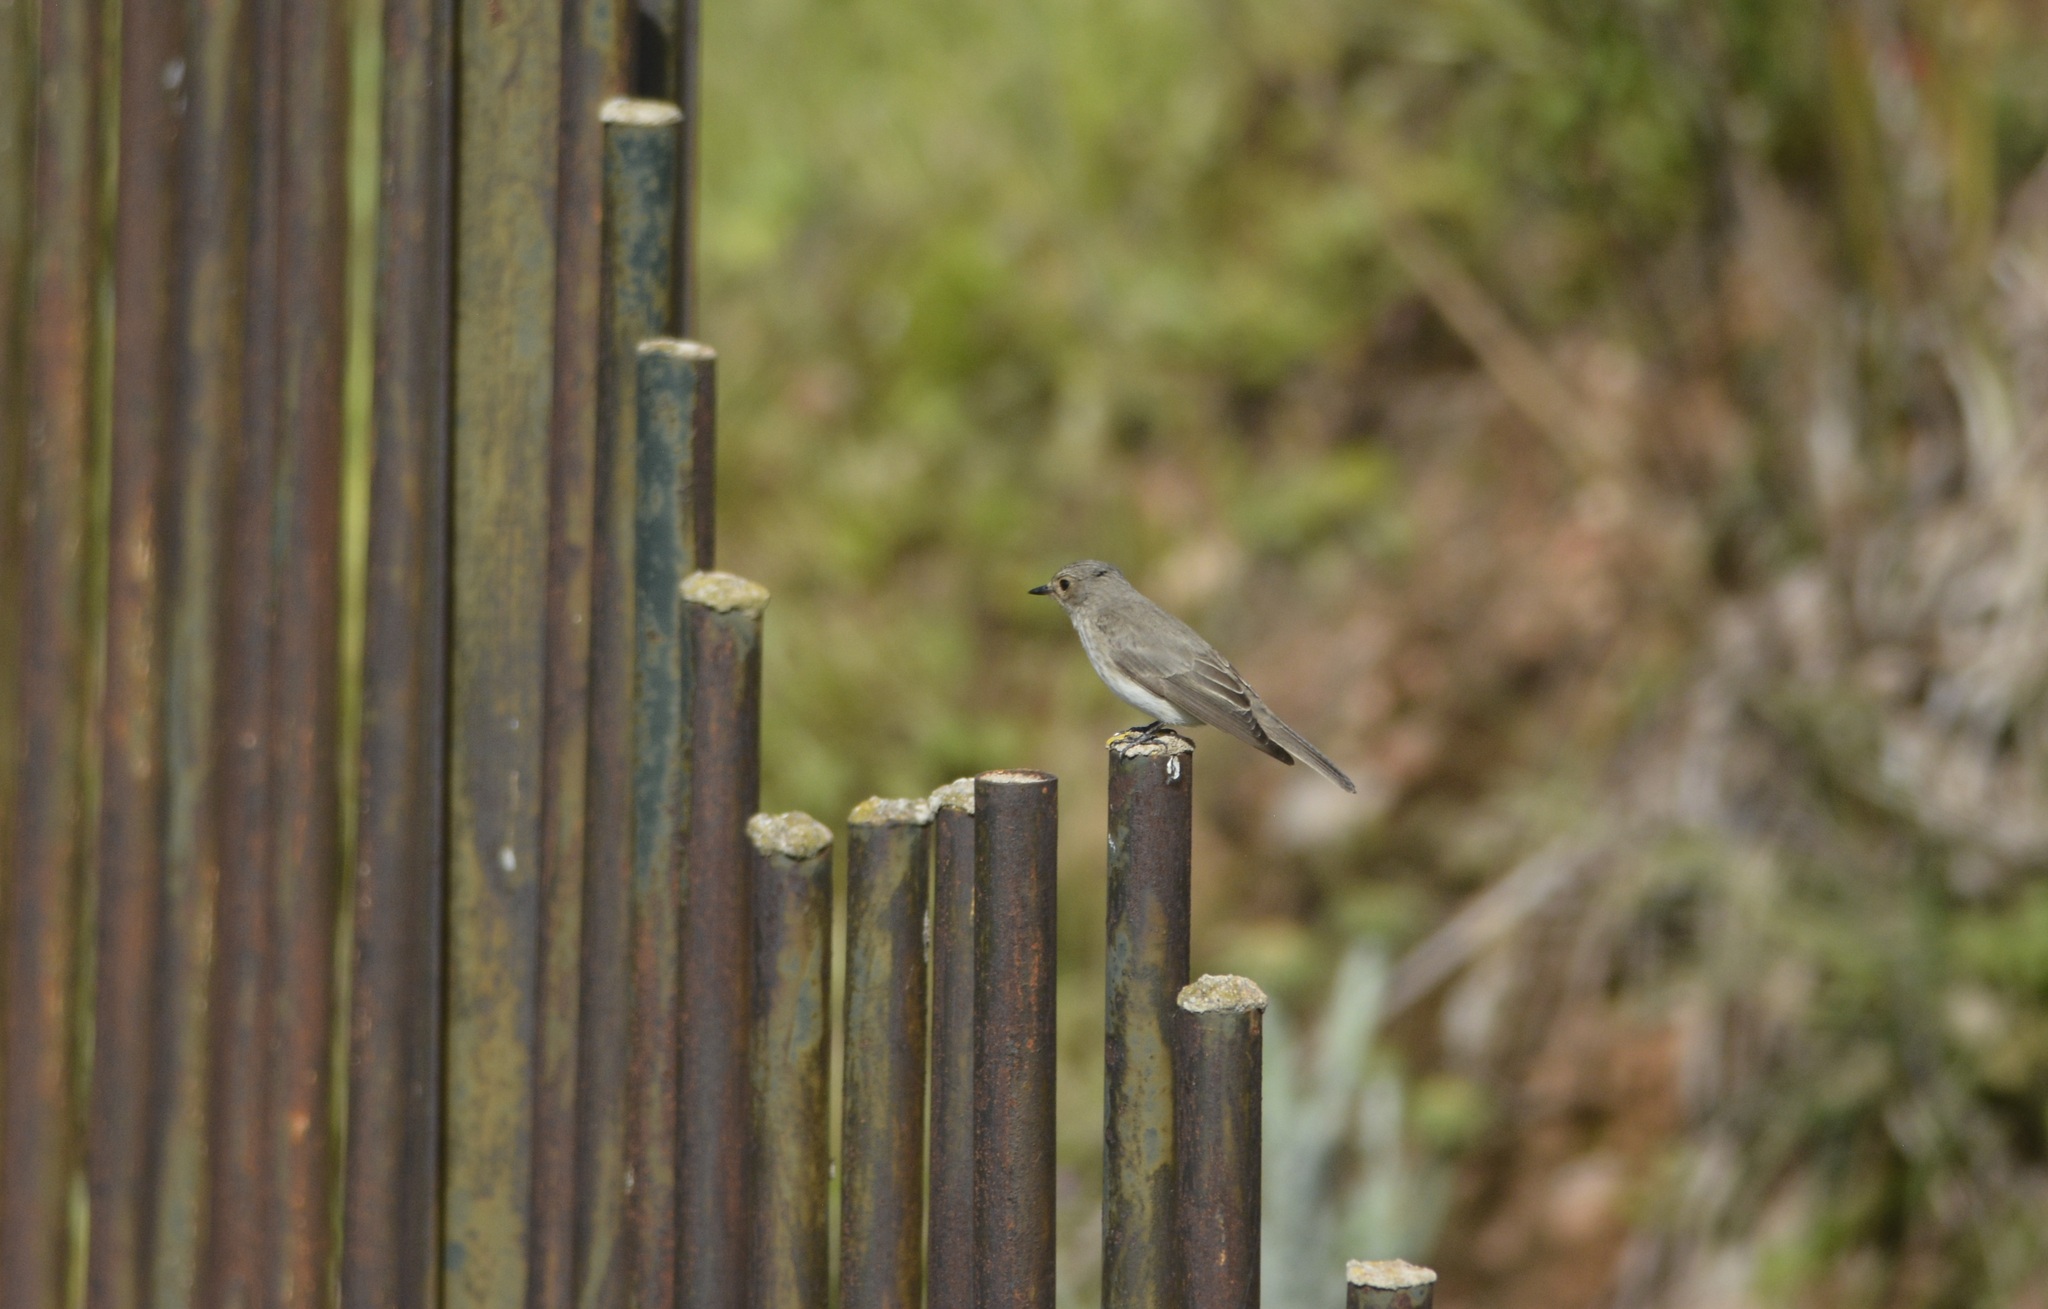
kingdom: Animalia
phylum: Chordata
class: Aves
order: Passeriformes
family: Muscicapidae
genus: Muscicapa
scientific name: Muscicapa striata
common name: Spotted flycatcher
